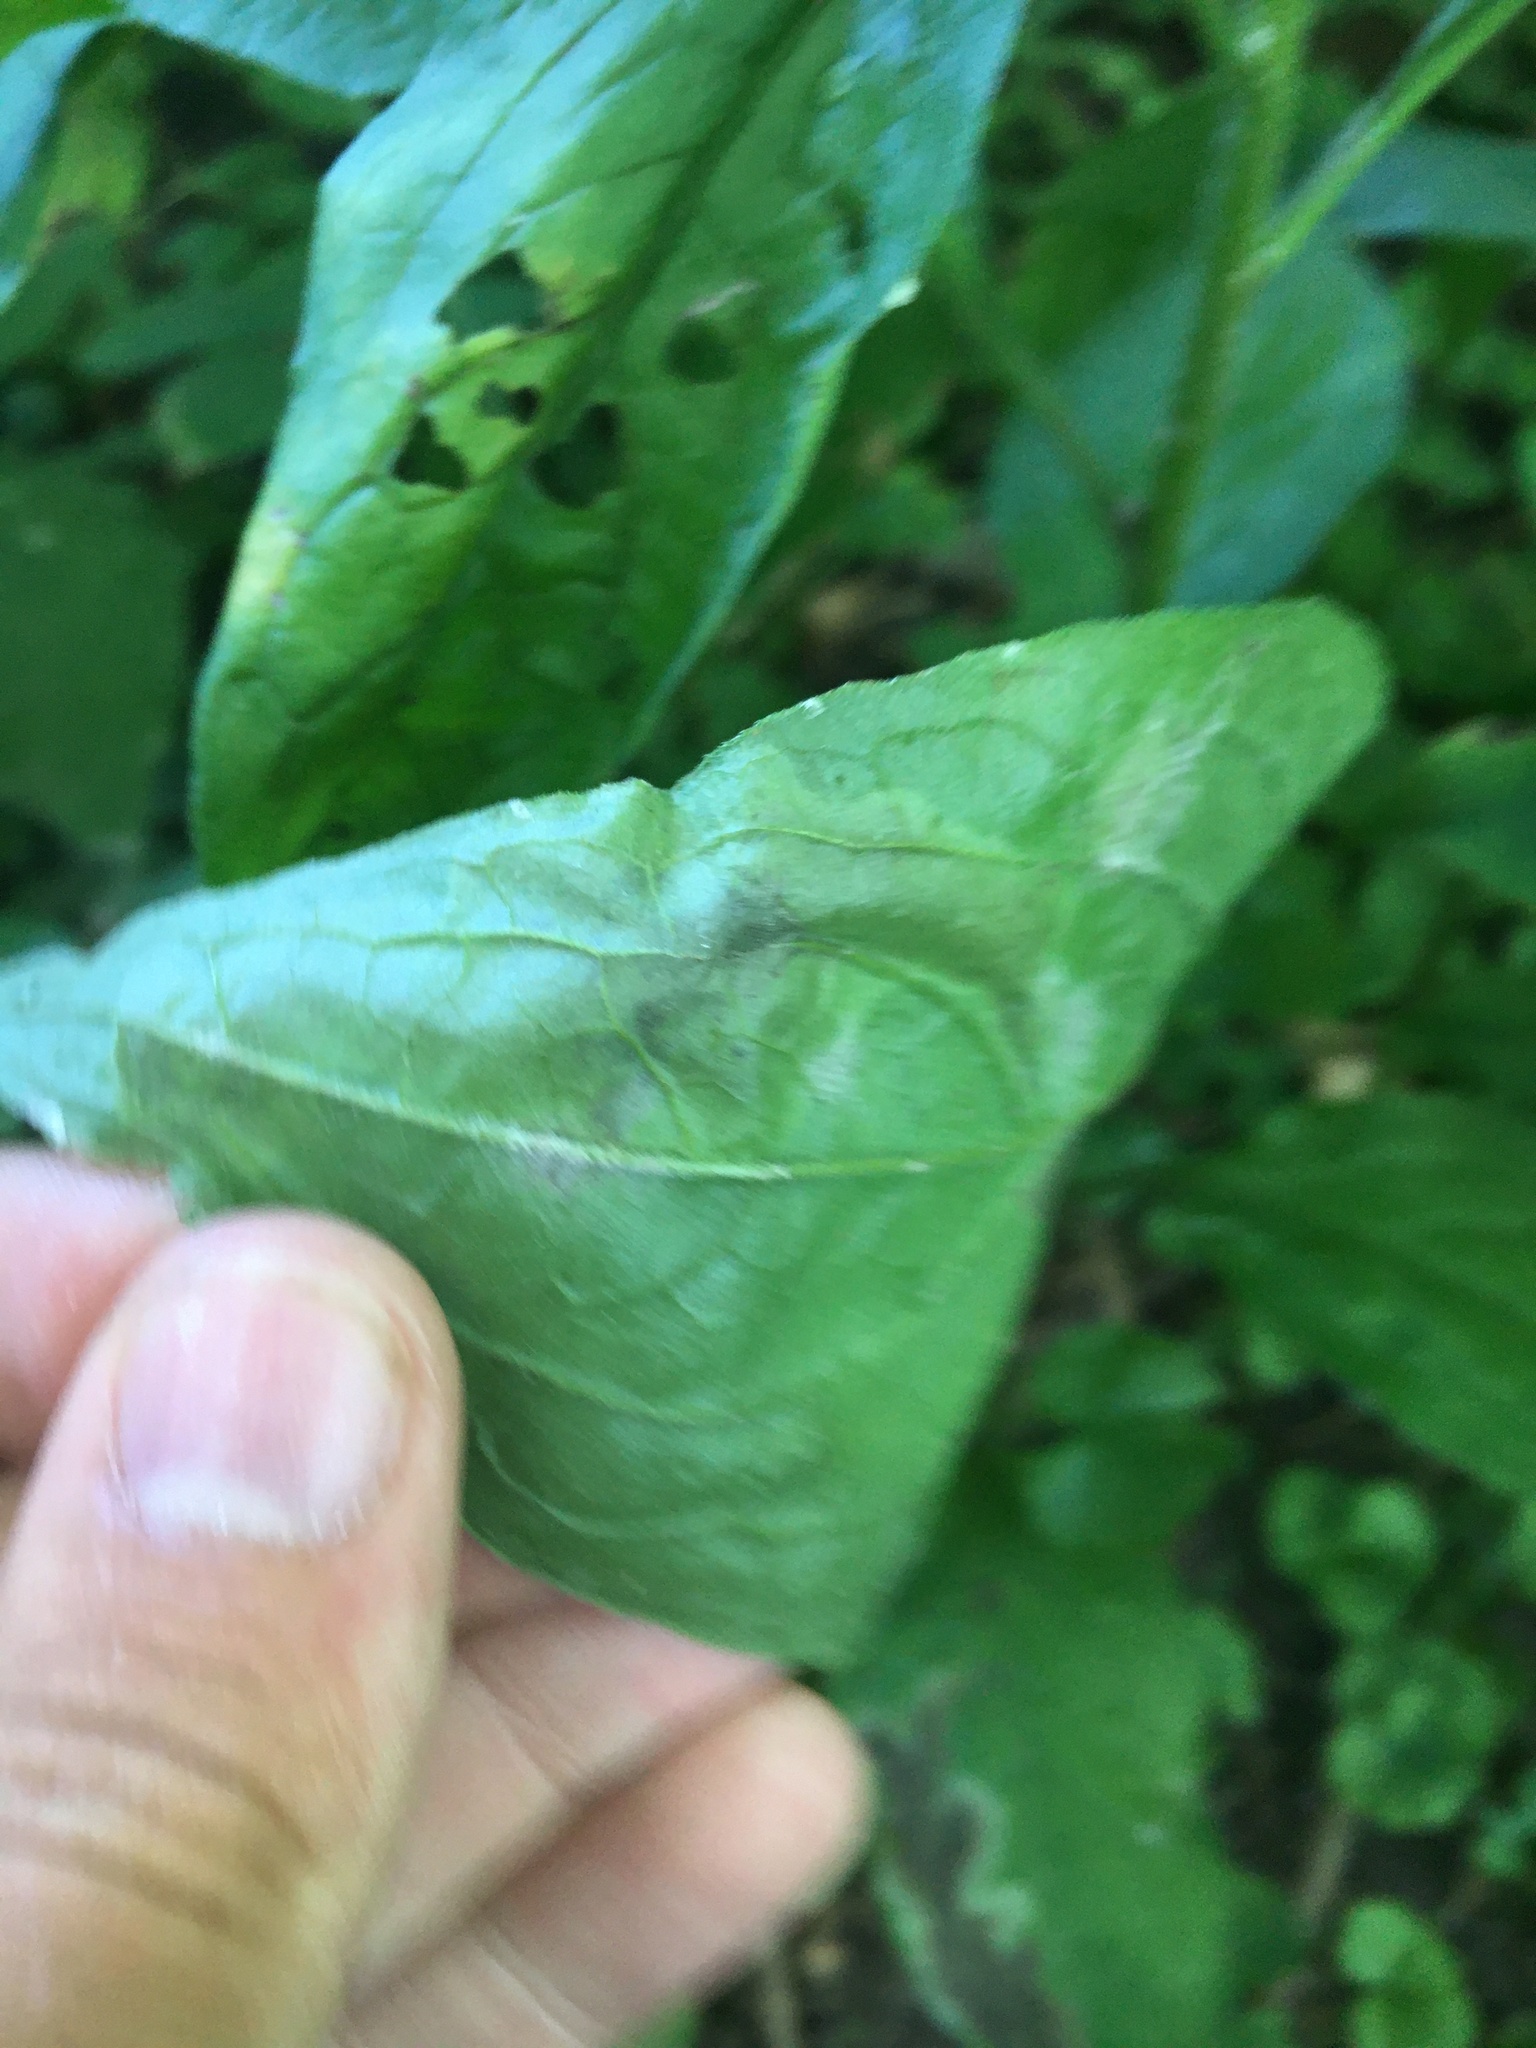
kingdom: Animalia
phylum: Arthropoda
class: Insecta
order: Diptera
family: Agromyzidae
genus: Agromyza
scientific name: Agromyza canadensis
